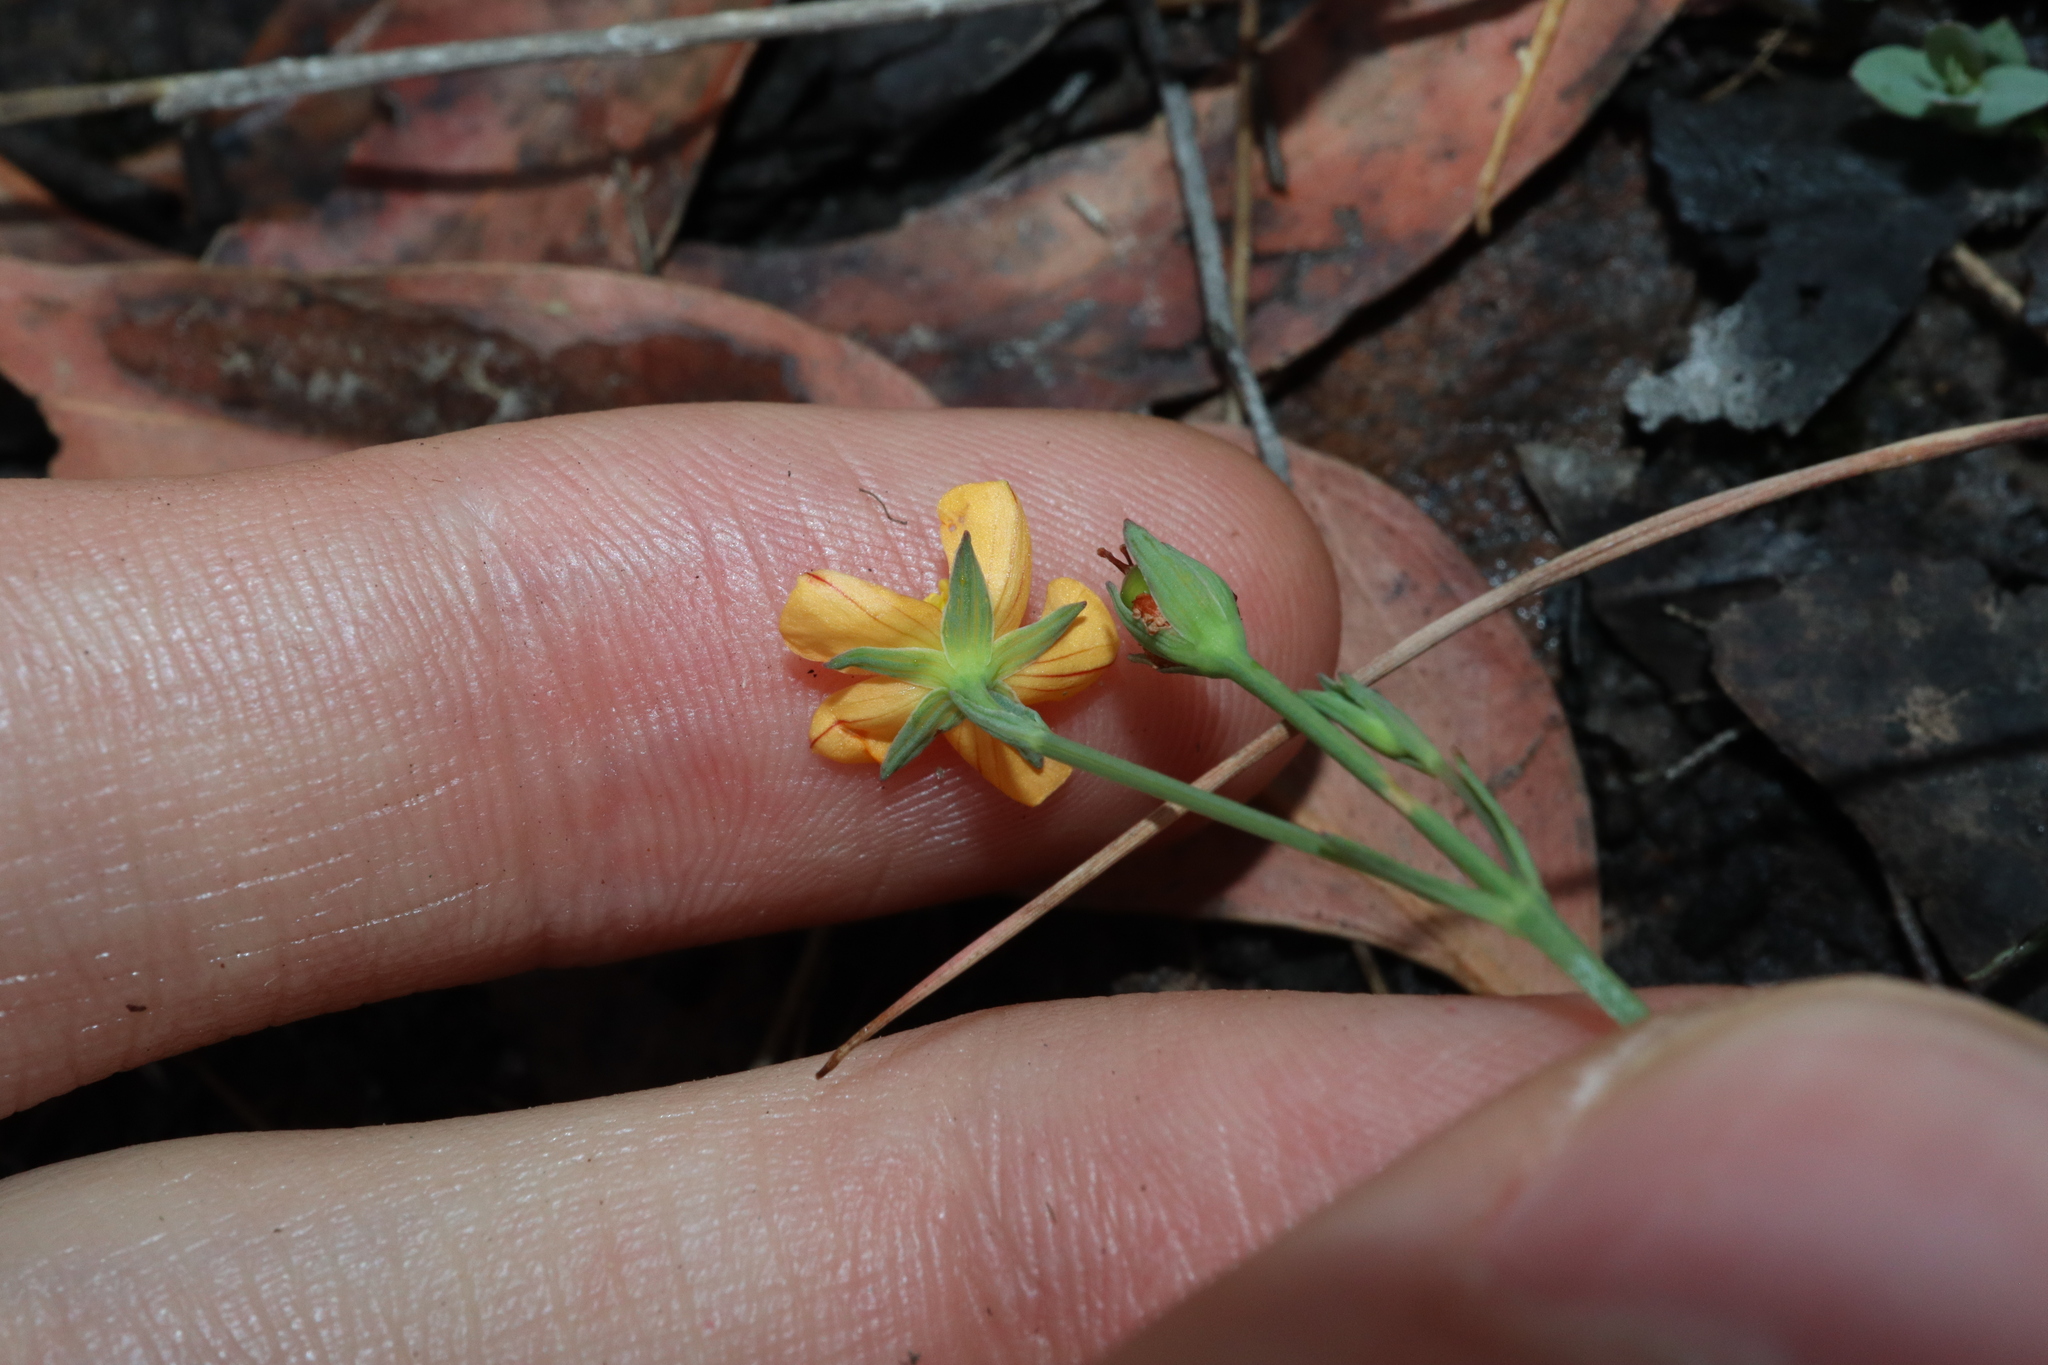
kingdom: Plantae
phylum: Tracheophyta
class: Magnoliopsida
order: Malpighiales
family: Hypericaceae
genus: Hypericum
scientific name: Hypericum gramineum
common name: Grassy st. johnswort
